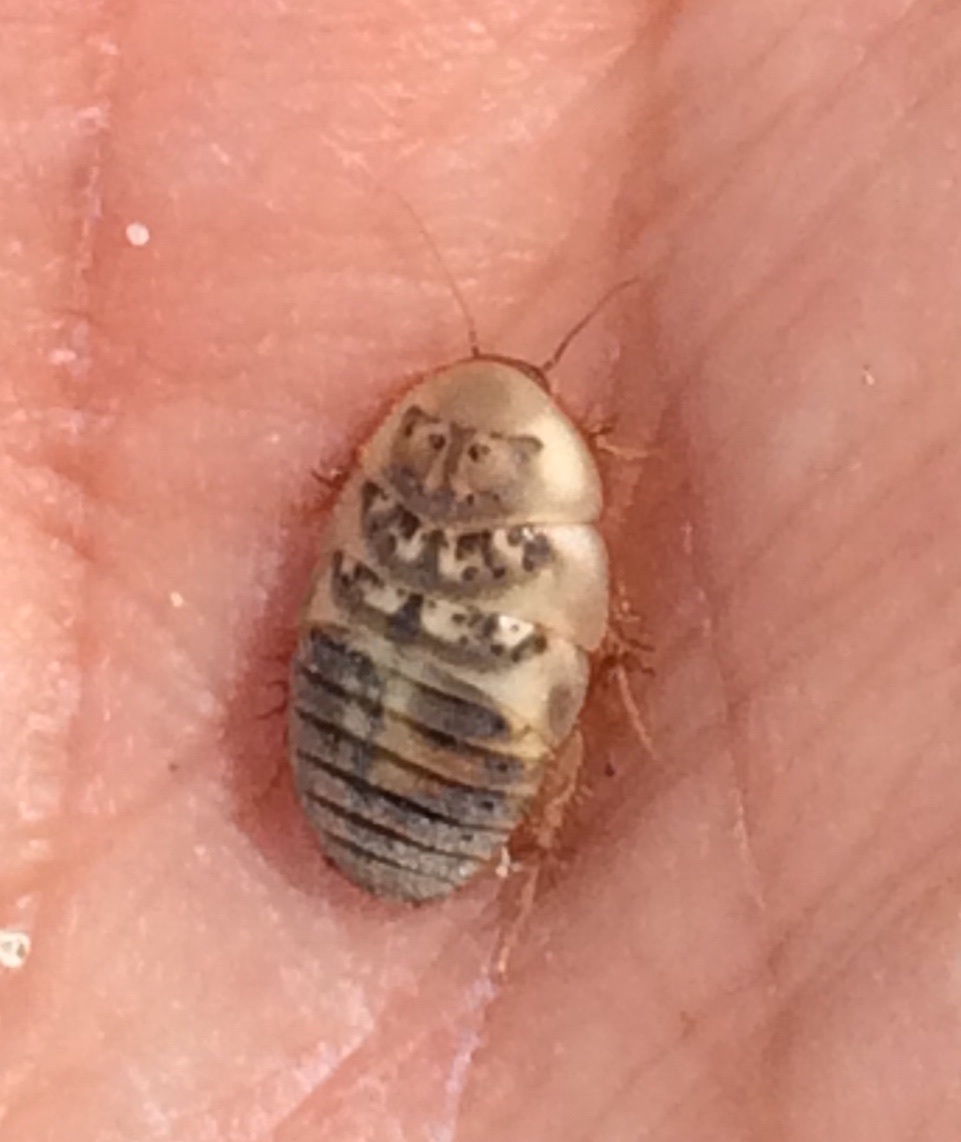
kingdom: Animalia
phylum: Arthropoda
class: Insecta
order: Blattodea
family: Corydiidae
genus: Arenivaga
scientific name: Arenivaga
